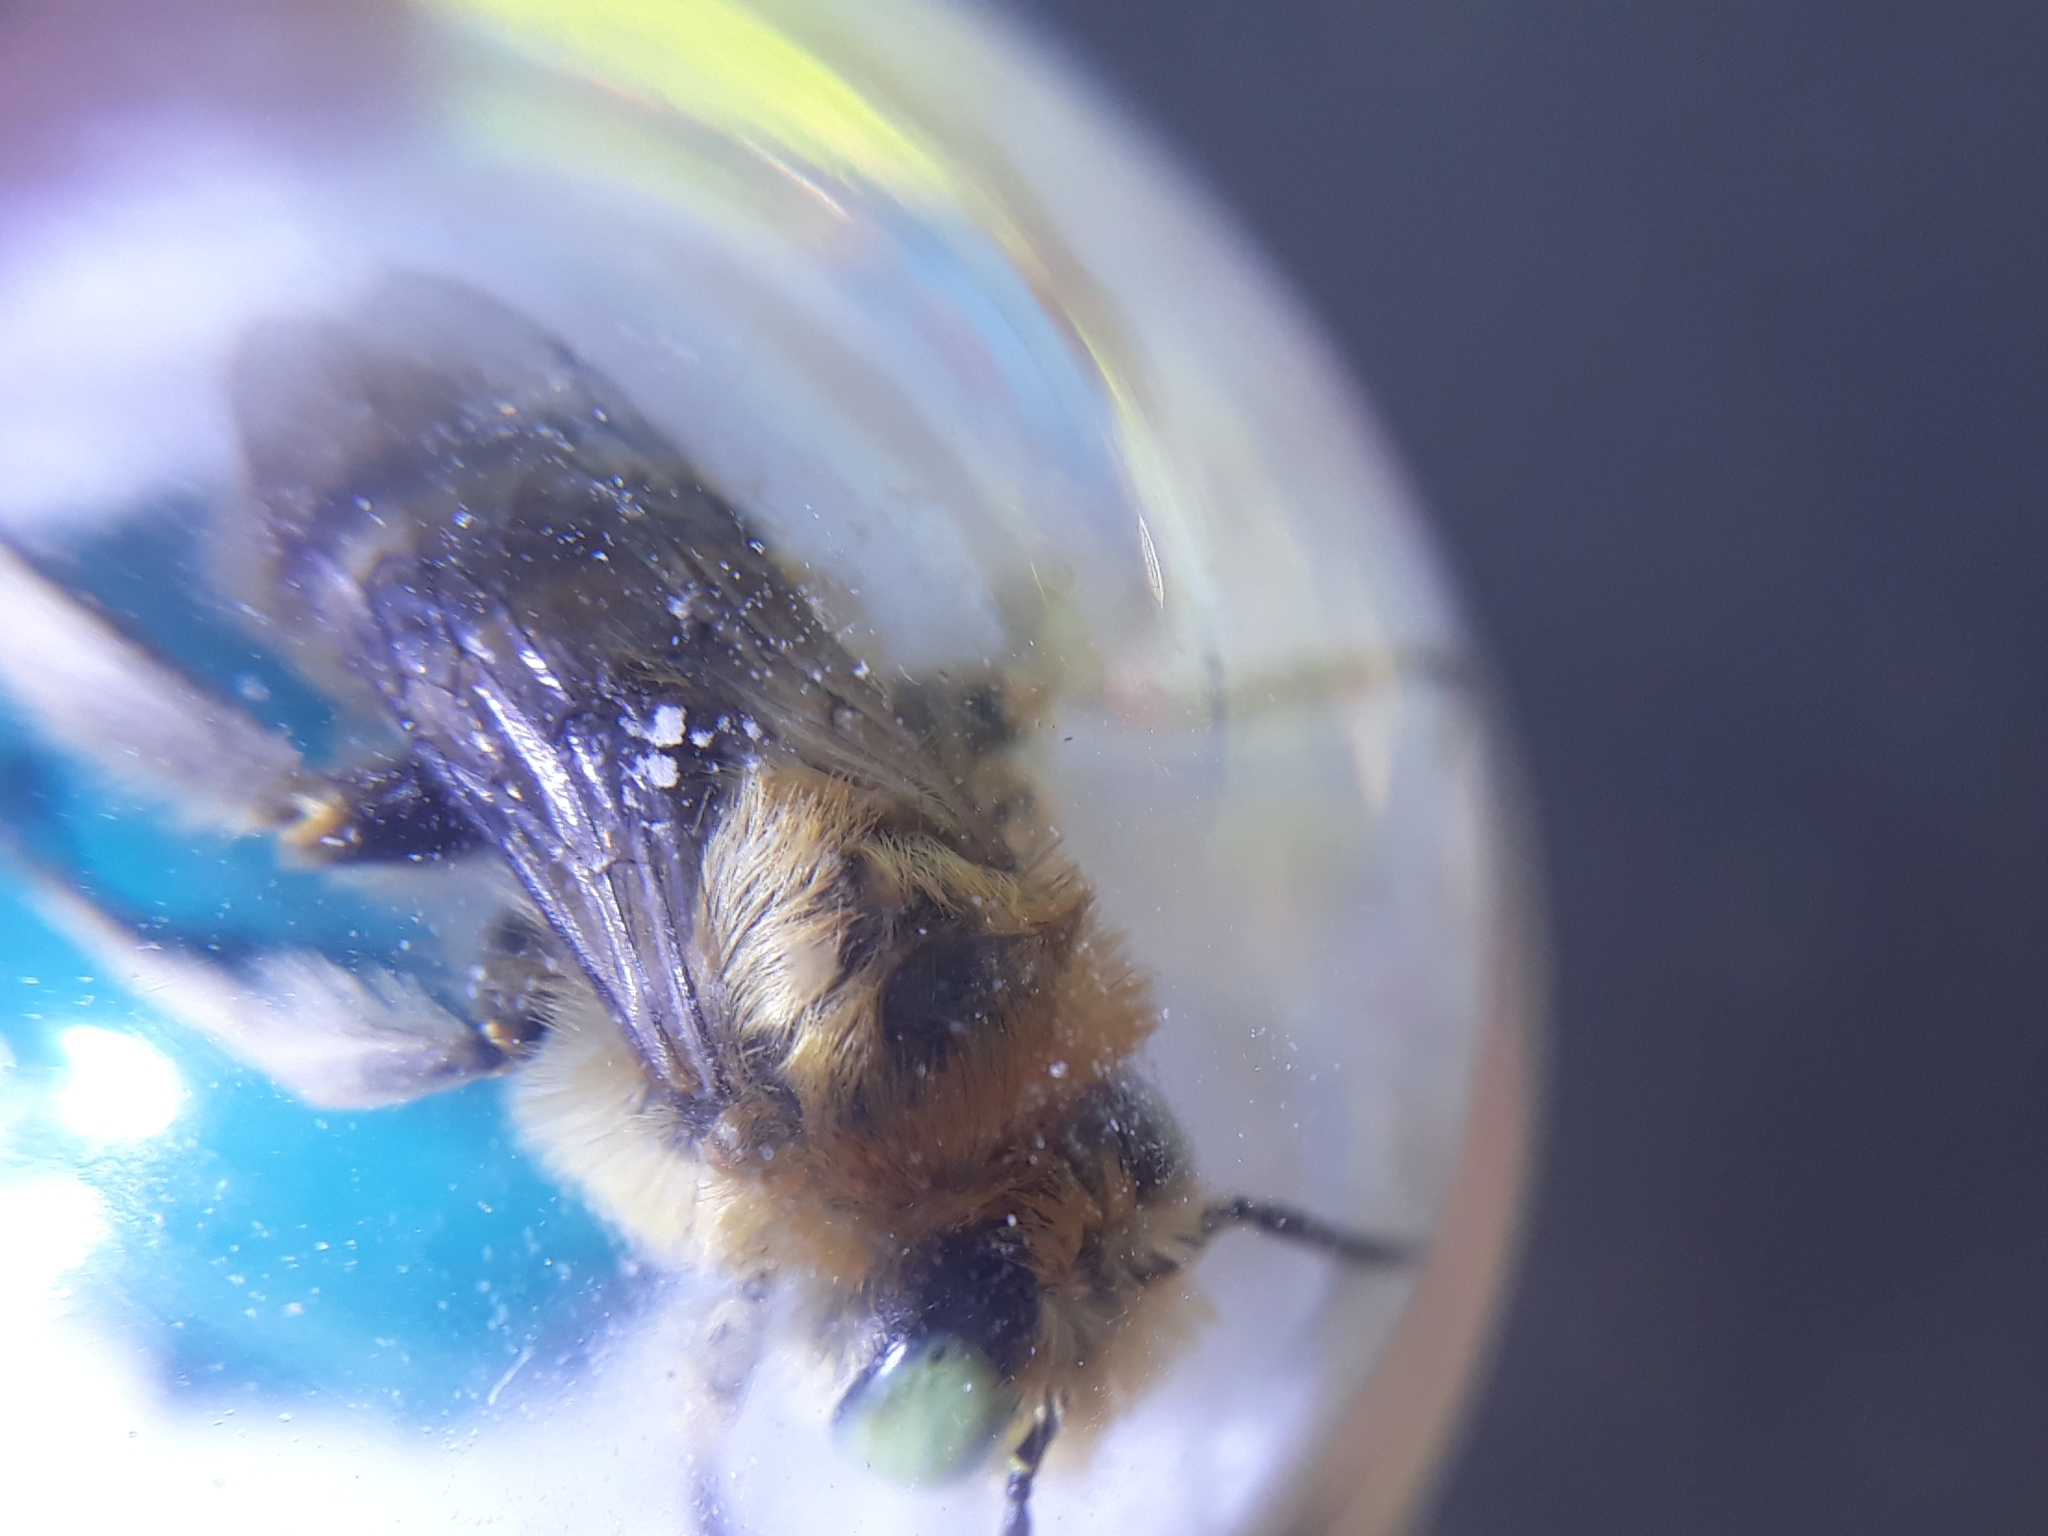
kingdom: Animalia
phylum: Arthropoda
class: Insecta
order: Hymenoptera
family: Apidae
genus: Anthophora
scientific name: Anthophora bimaculata
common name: Green-eyed flower bee
